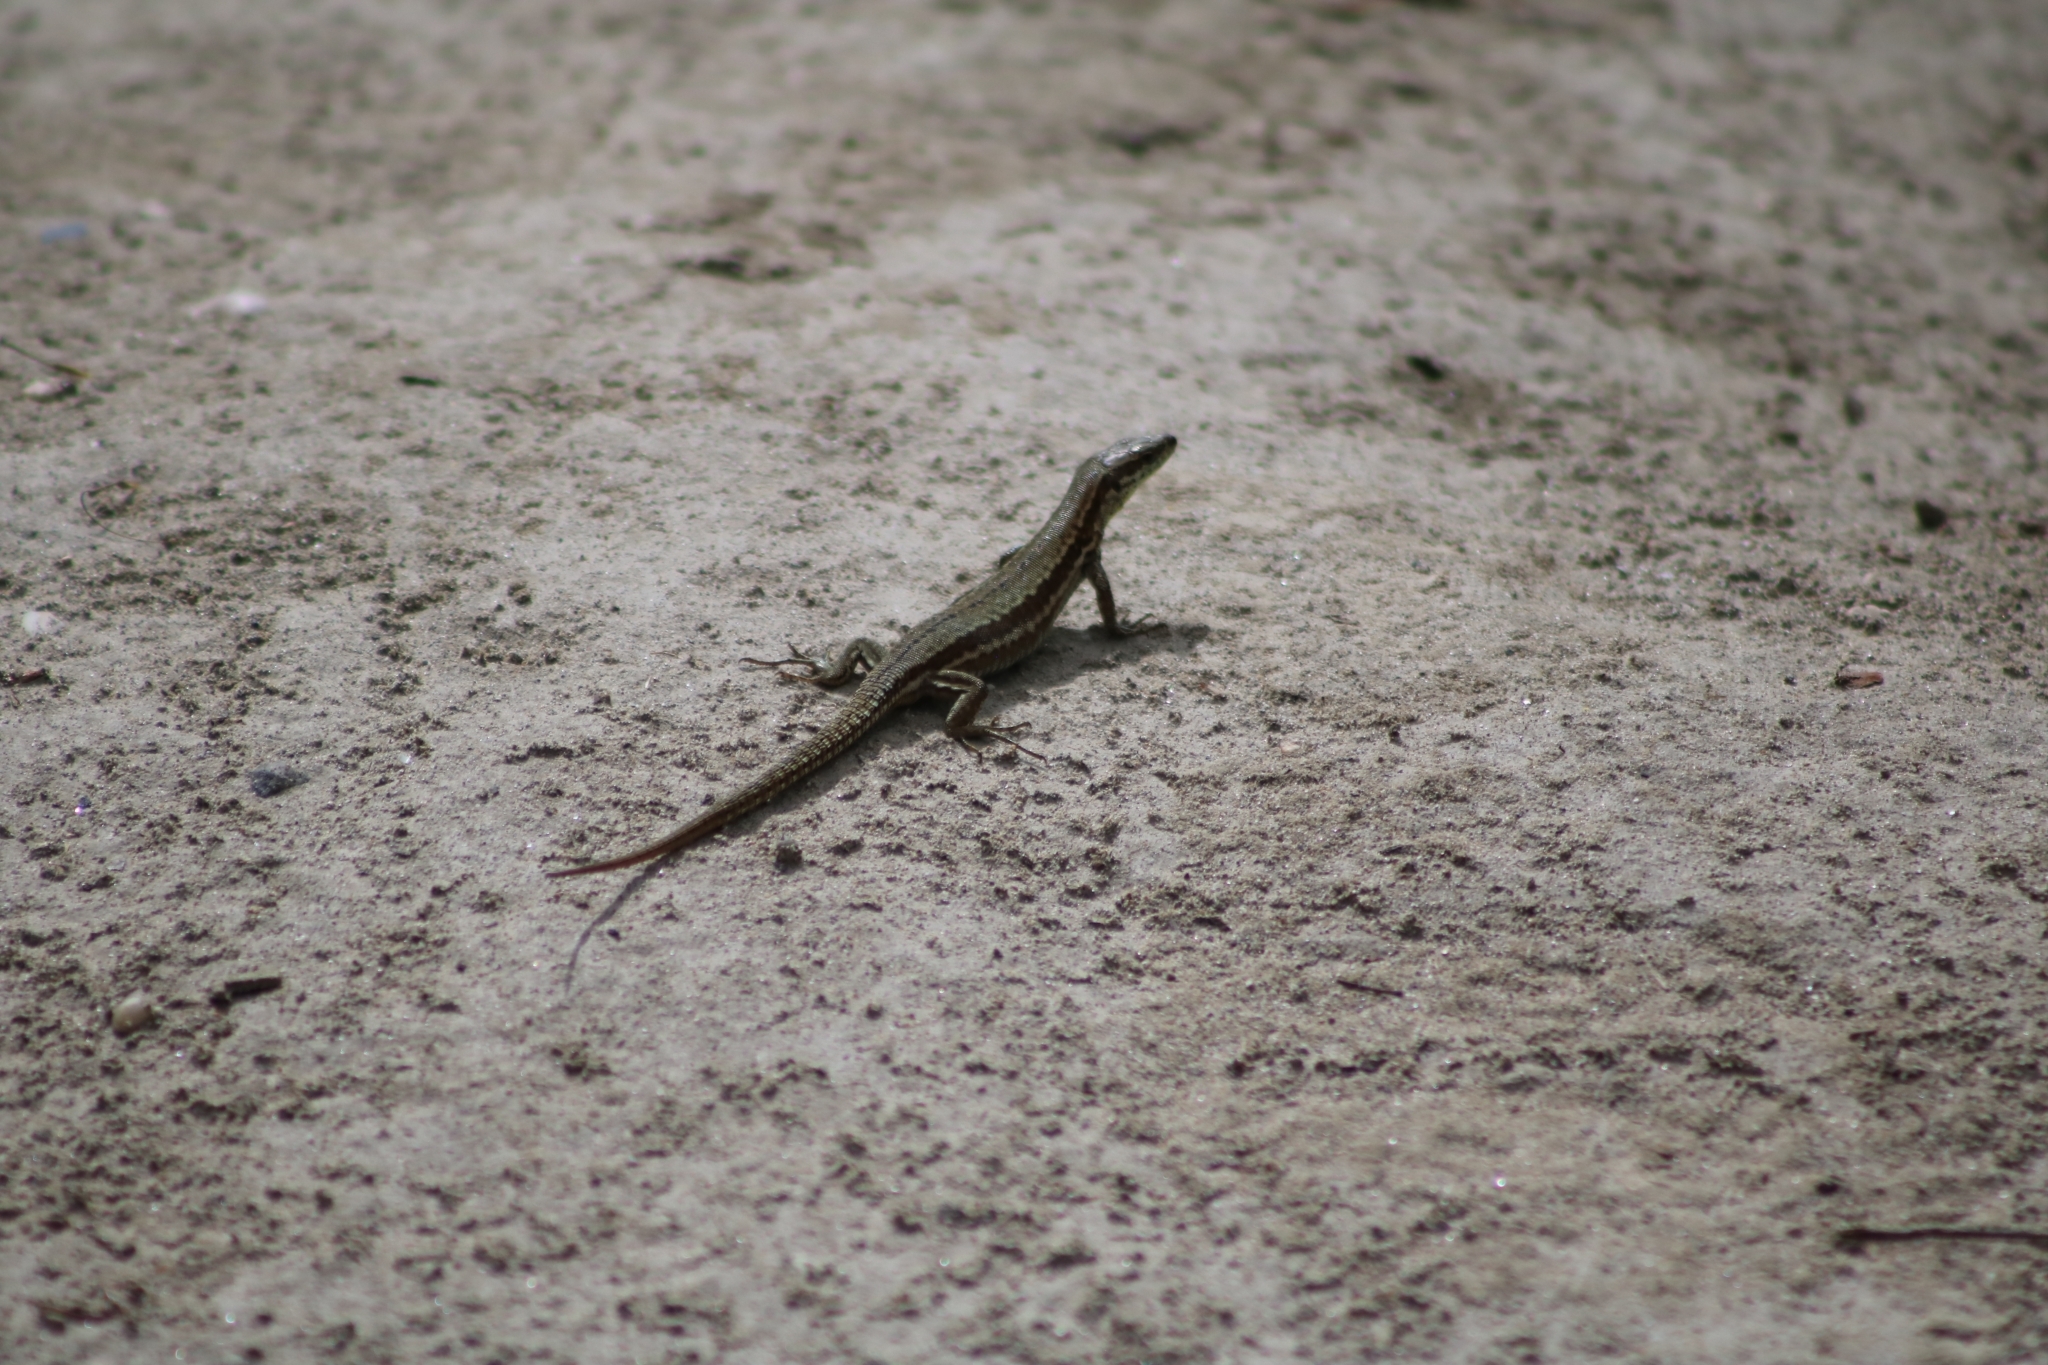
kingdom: Animalia
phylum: Chordata
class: Squamata
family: Lacertidae
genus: Podarcis
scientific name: Podarcis muralis
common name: Common wall lizard
